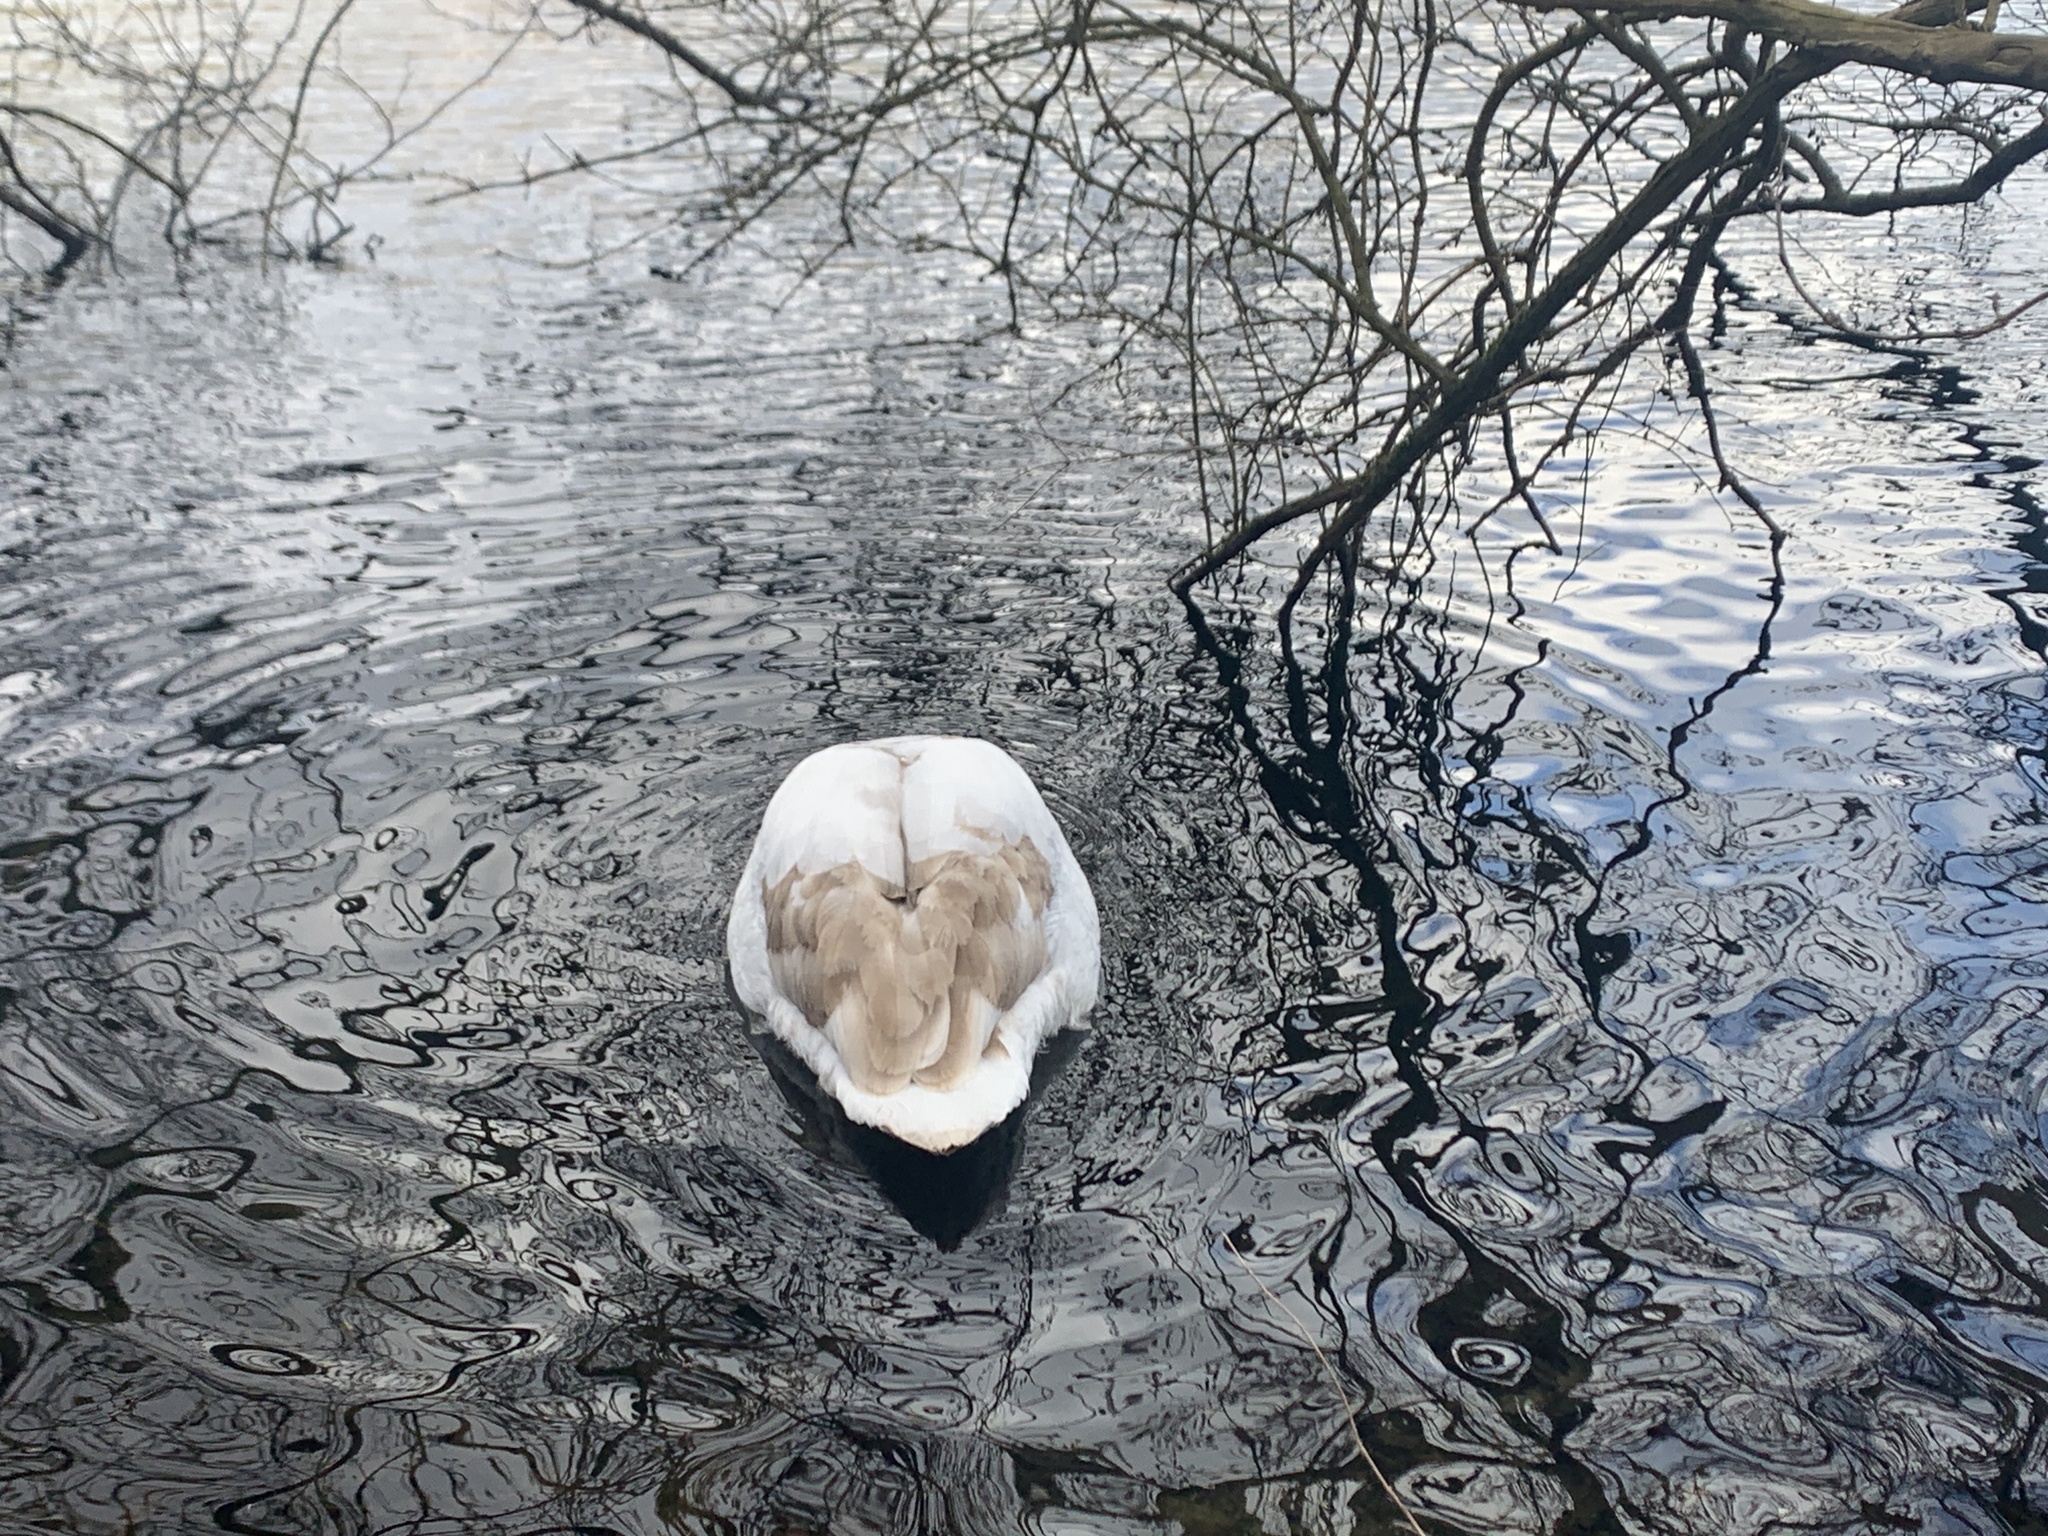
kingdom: Animalia
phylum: Chordata
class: Aves
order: Anseriformes
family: Anatidae
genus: Cygnus
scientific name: Cygnus olor
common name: Mute swan
